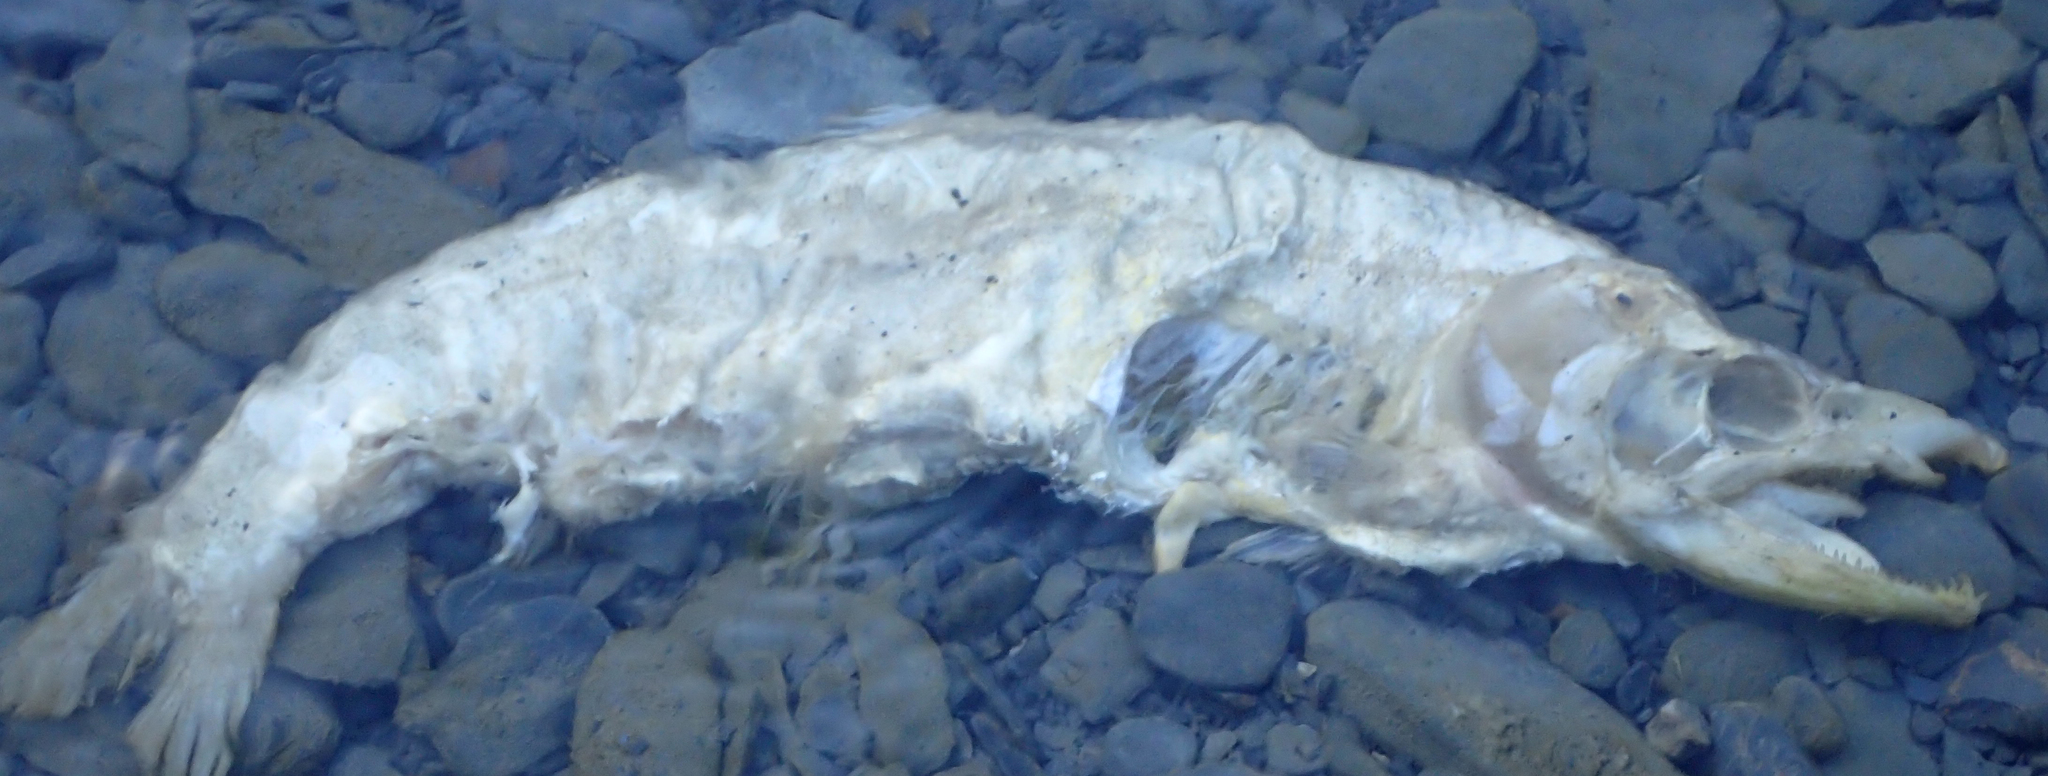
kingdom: Animalia
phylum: Chordata
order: Salmoniformes
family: Salmonidae
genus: Oncorhynchus
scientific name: Oncorhynchus gorbuscha
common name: Humpback salmon
